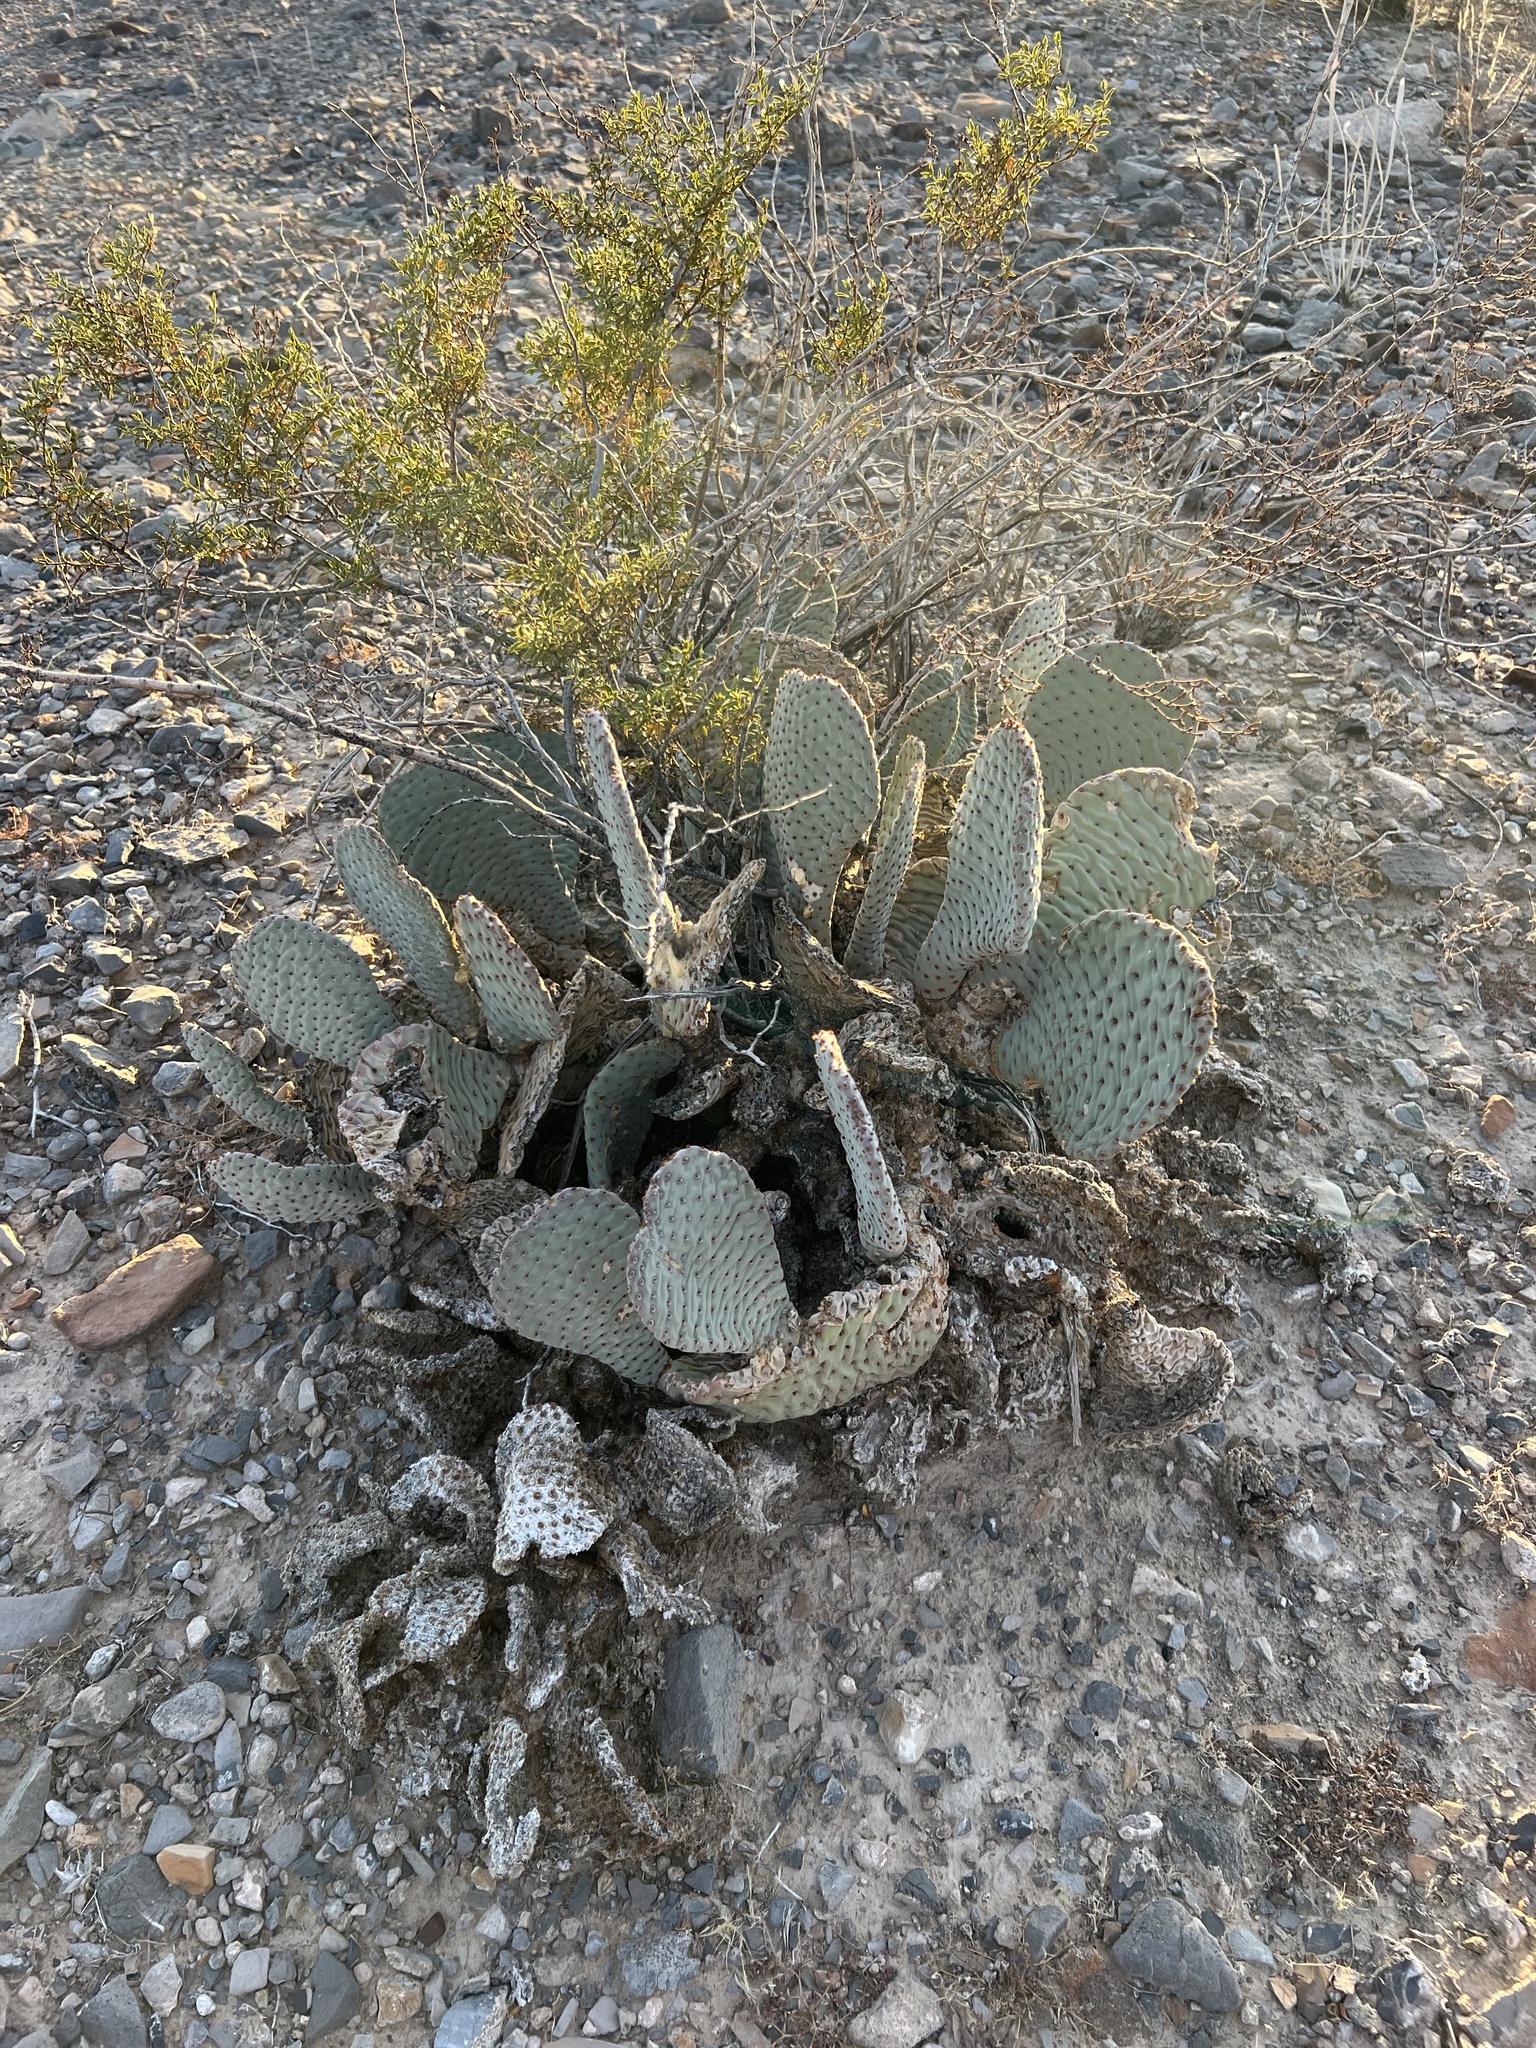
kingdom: Plantae
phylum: Tracheophyta
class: Magnoliopsida
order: Caryophyllales
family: Cactaceae
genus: Opuntia
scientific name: Opuntia basilaris
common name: Beavertail prickly-pear
